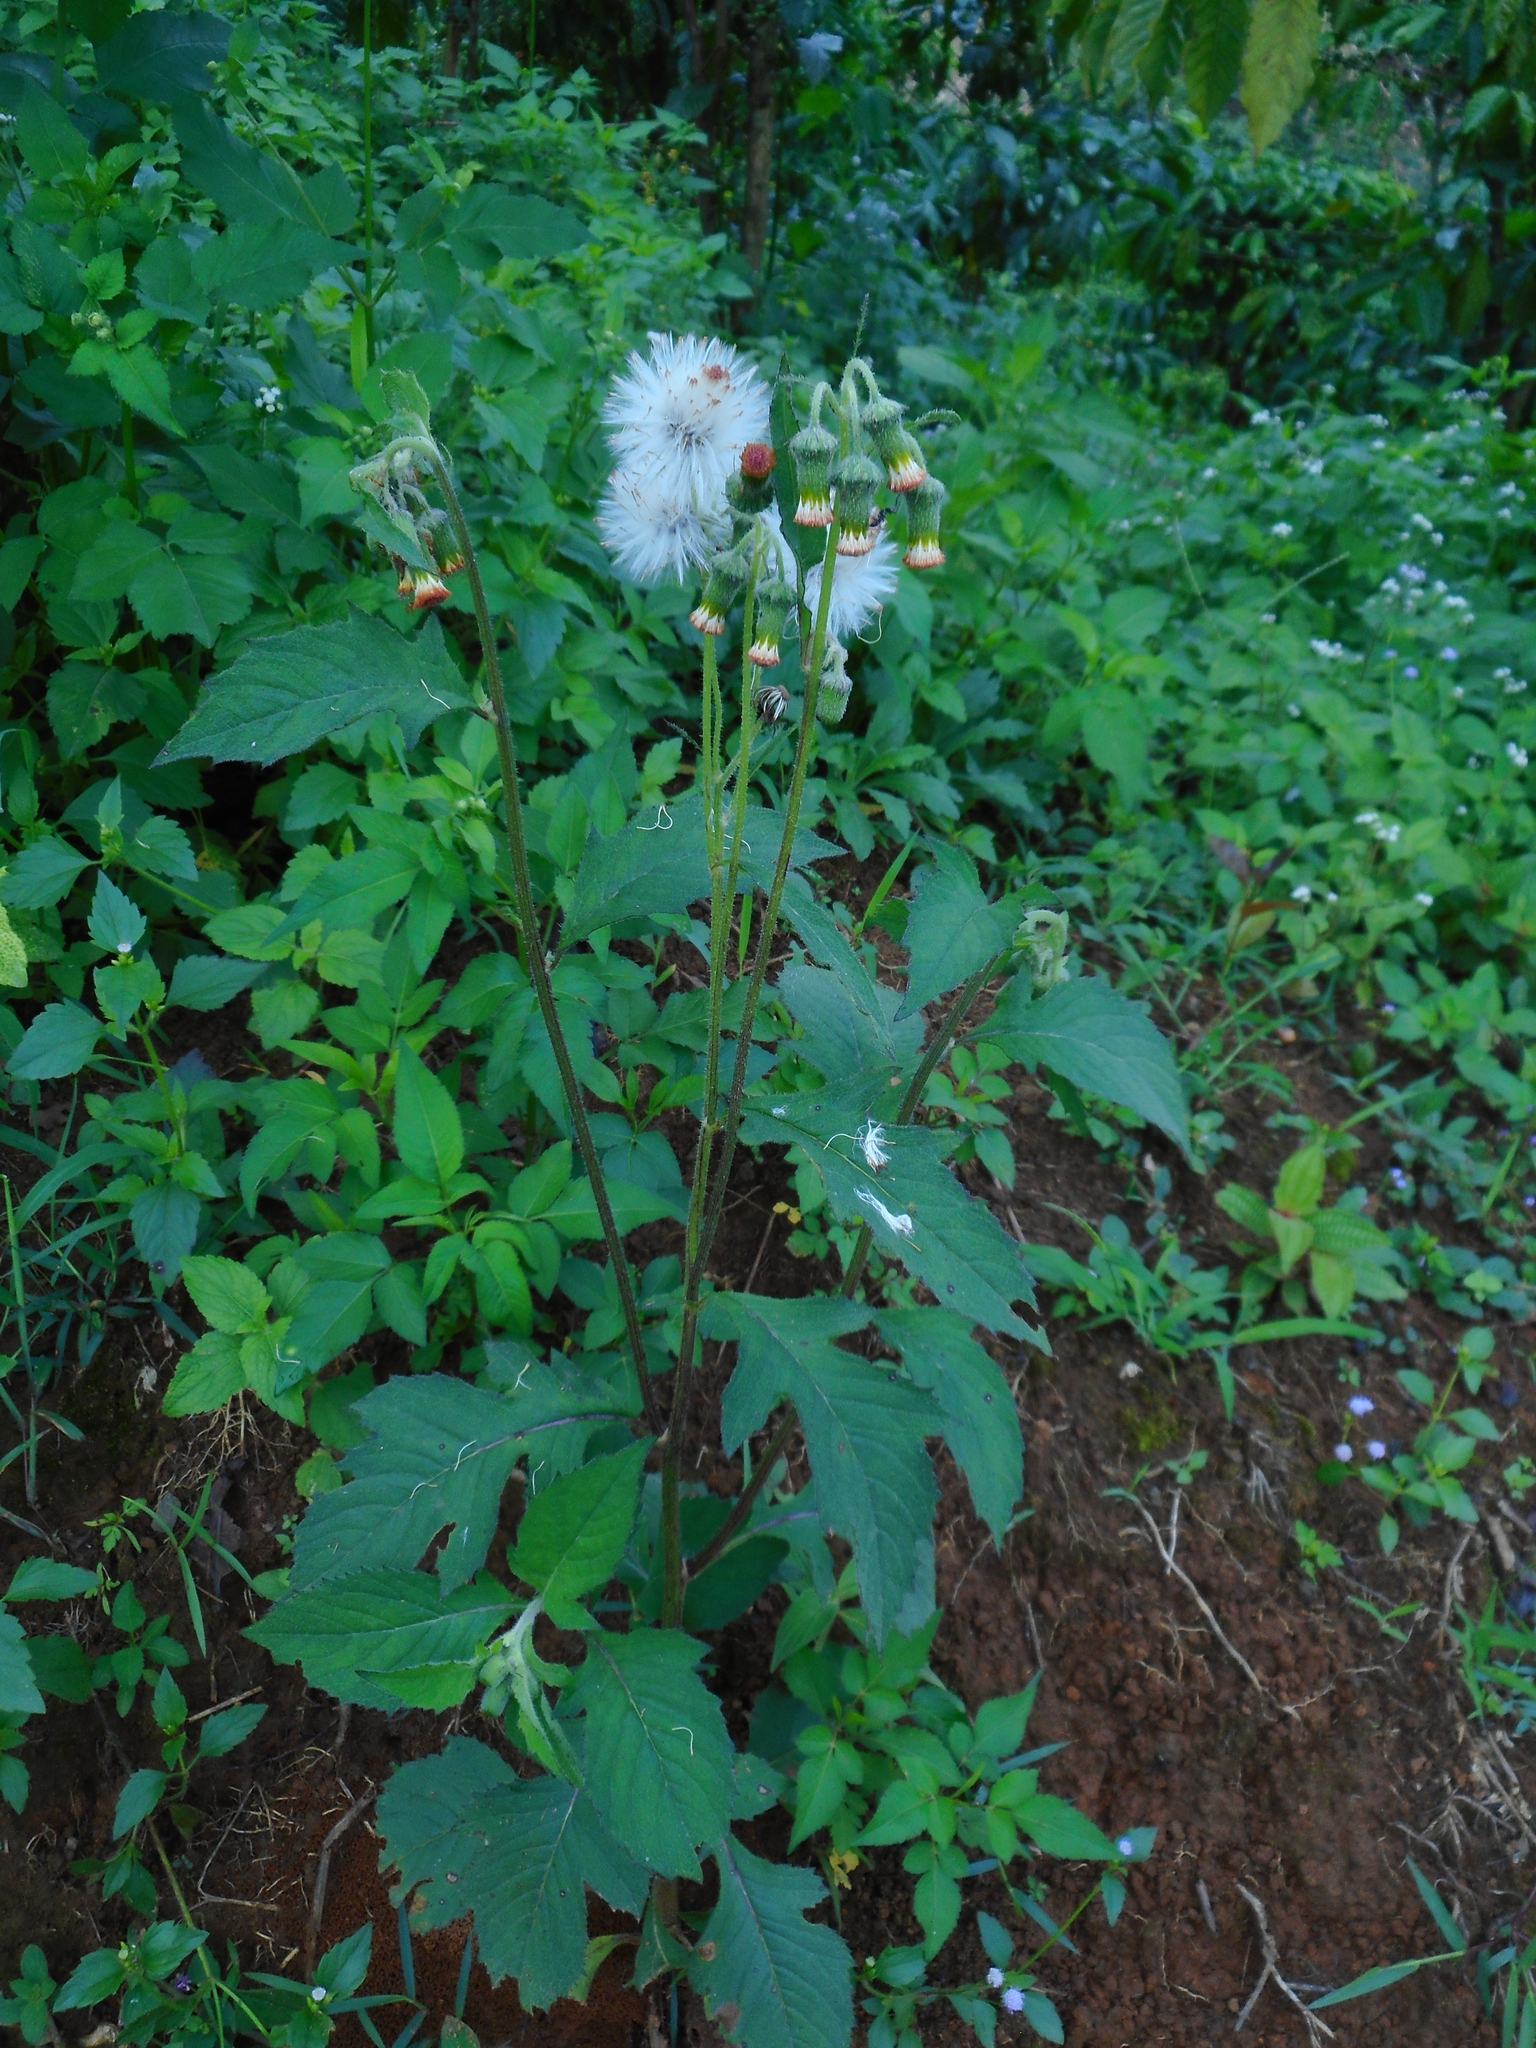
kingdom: Plantae
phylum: Tracheophyta
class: Magnoliopsida
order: Asterales
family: Asteraceae
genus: Crassocephalum
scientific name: Crassocephalum crepidioides
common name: Redflower ragleaf
